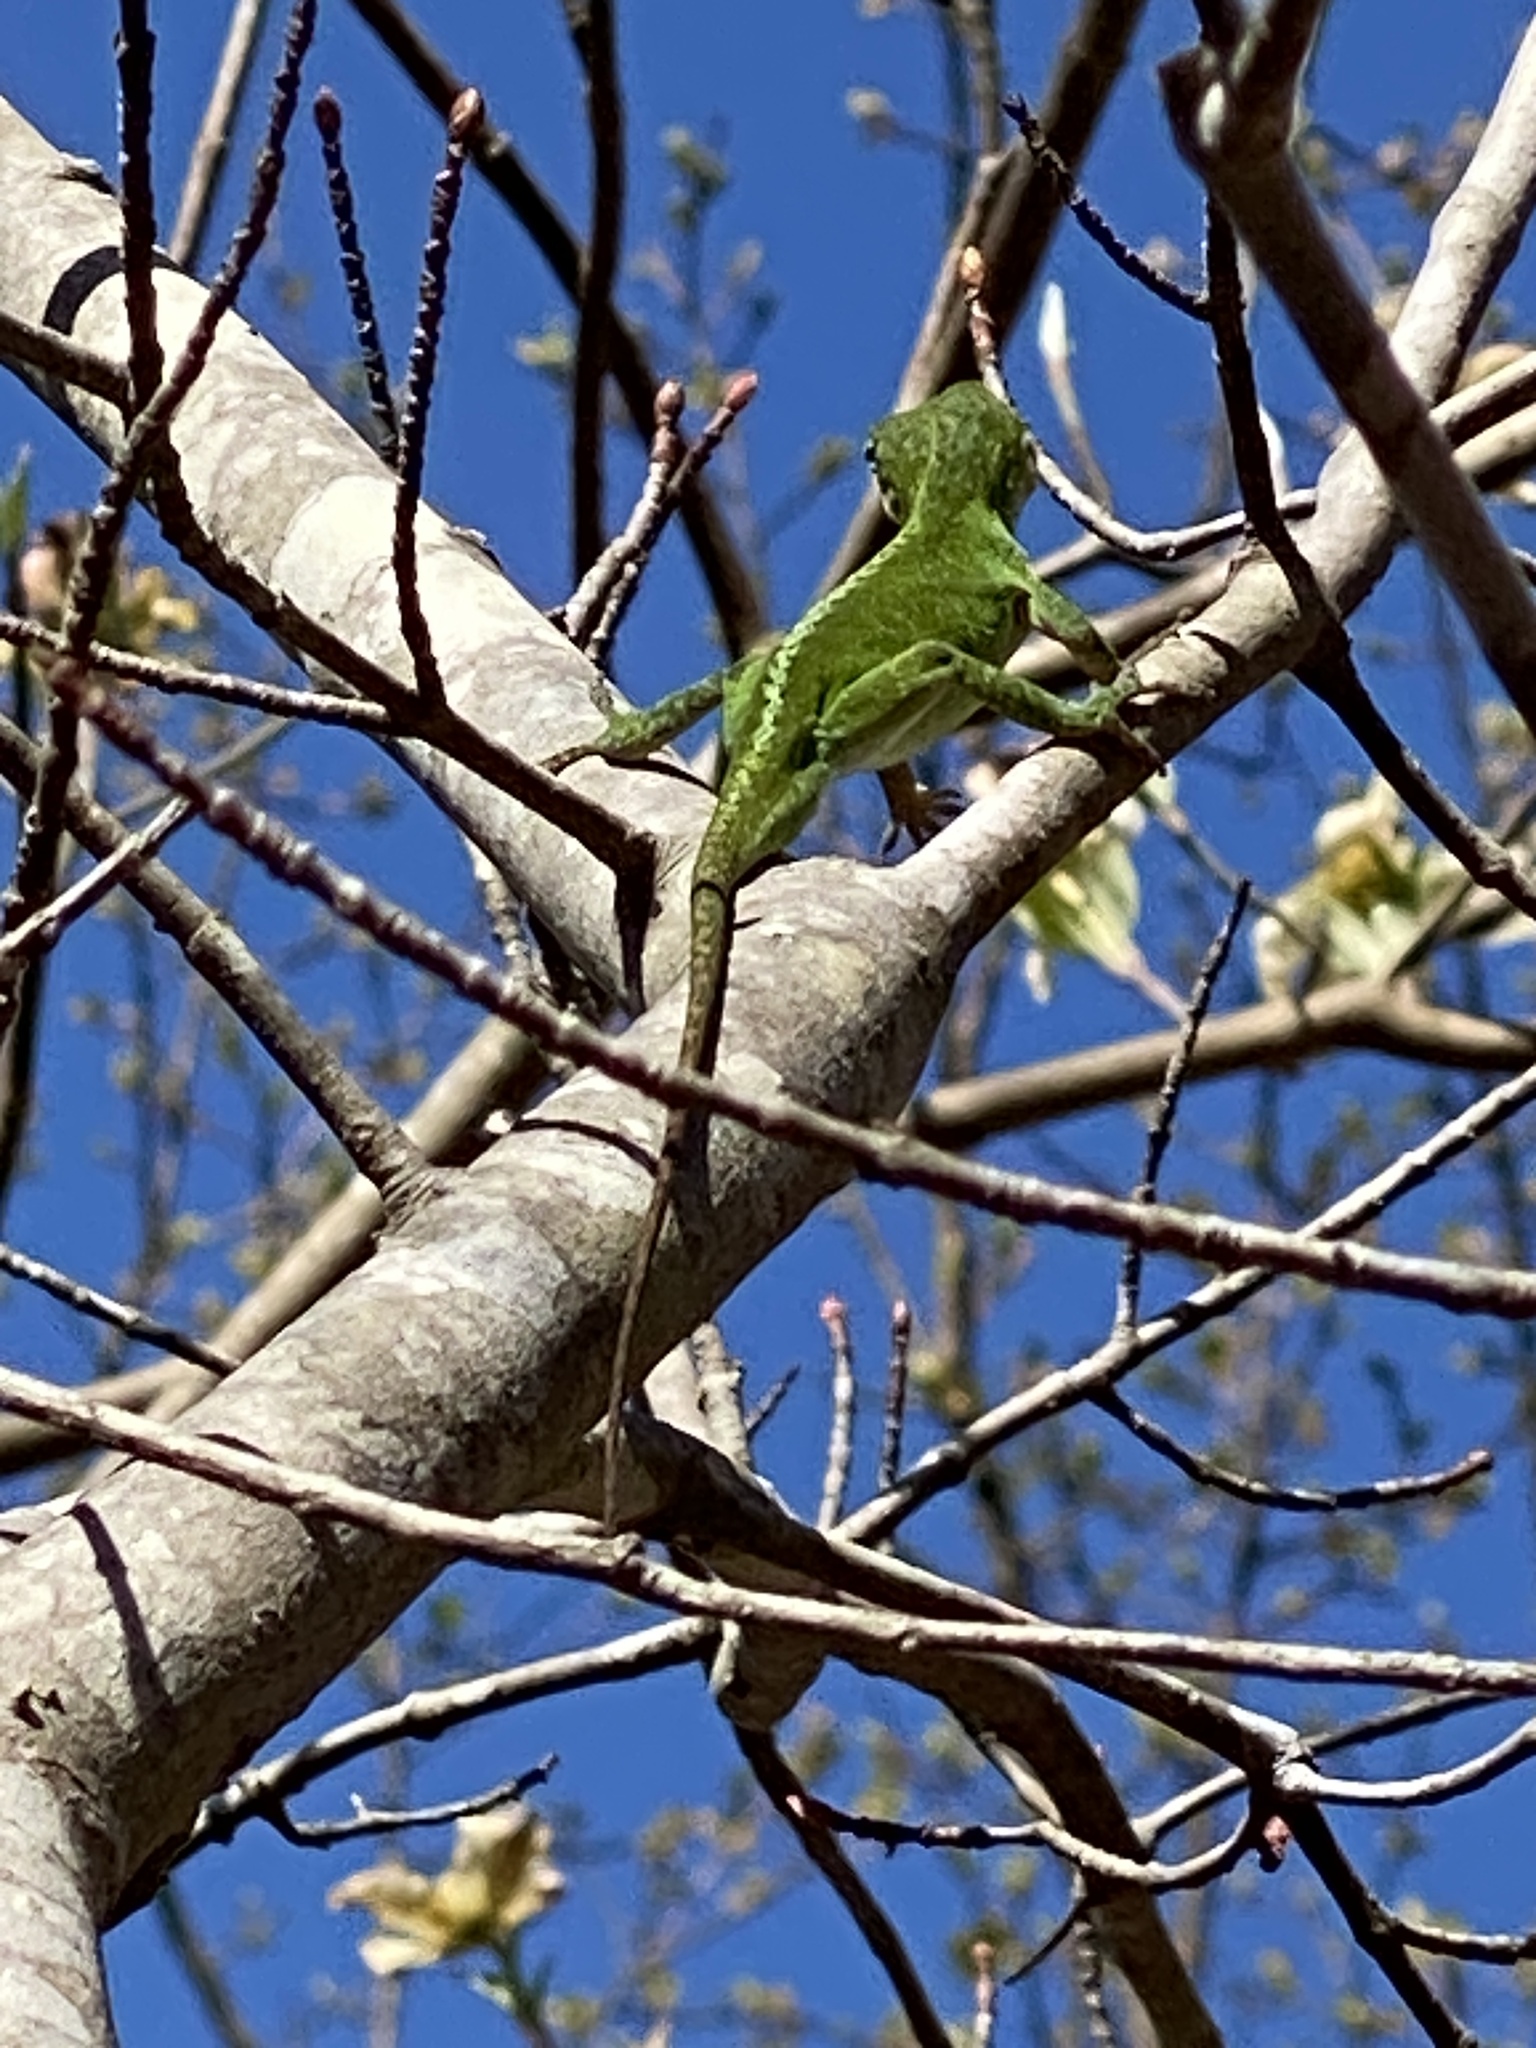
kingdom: Animalia
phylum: Chordata
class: Squamata
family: Dactyloidae
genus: Anolis
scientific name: Anolis carolinensis
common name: Green anole
